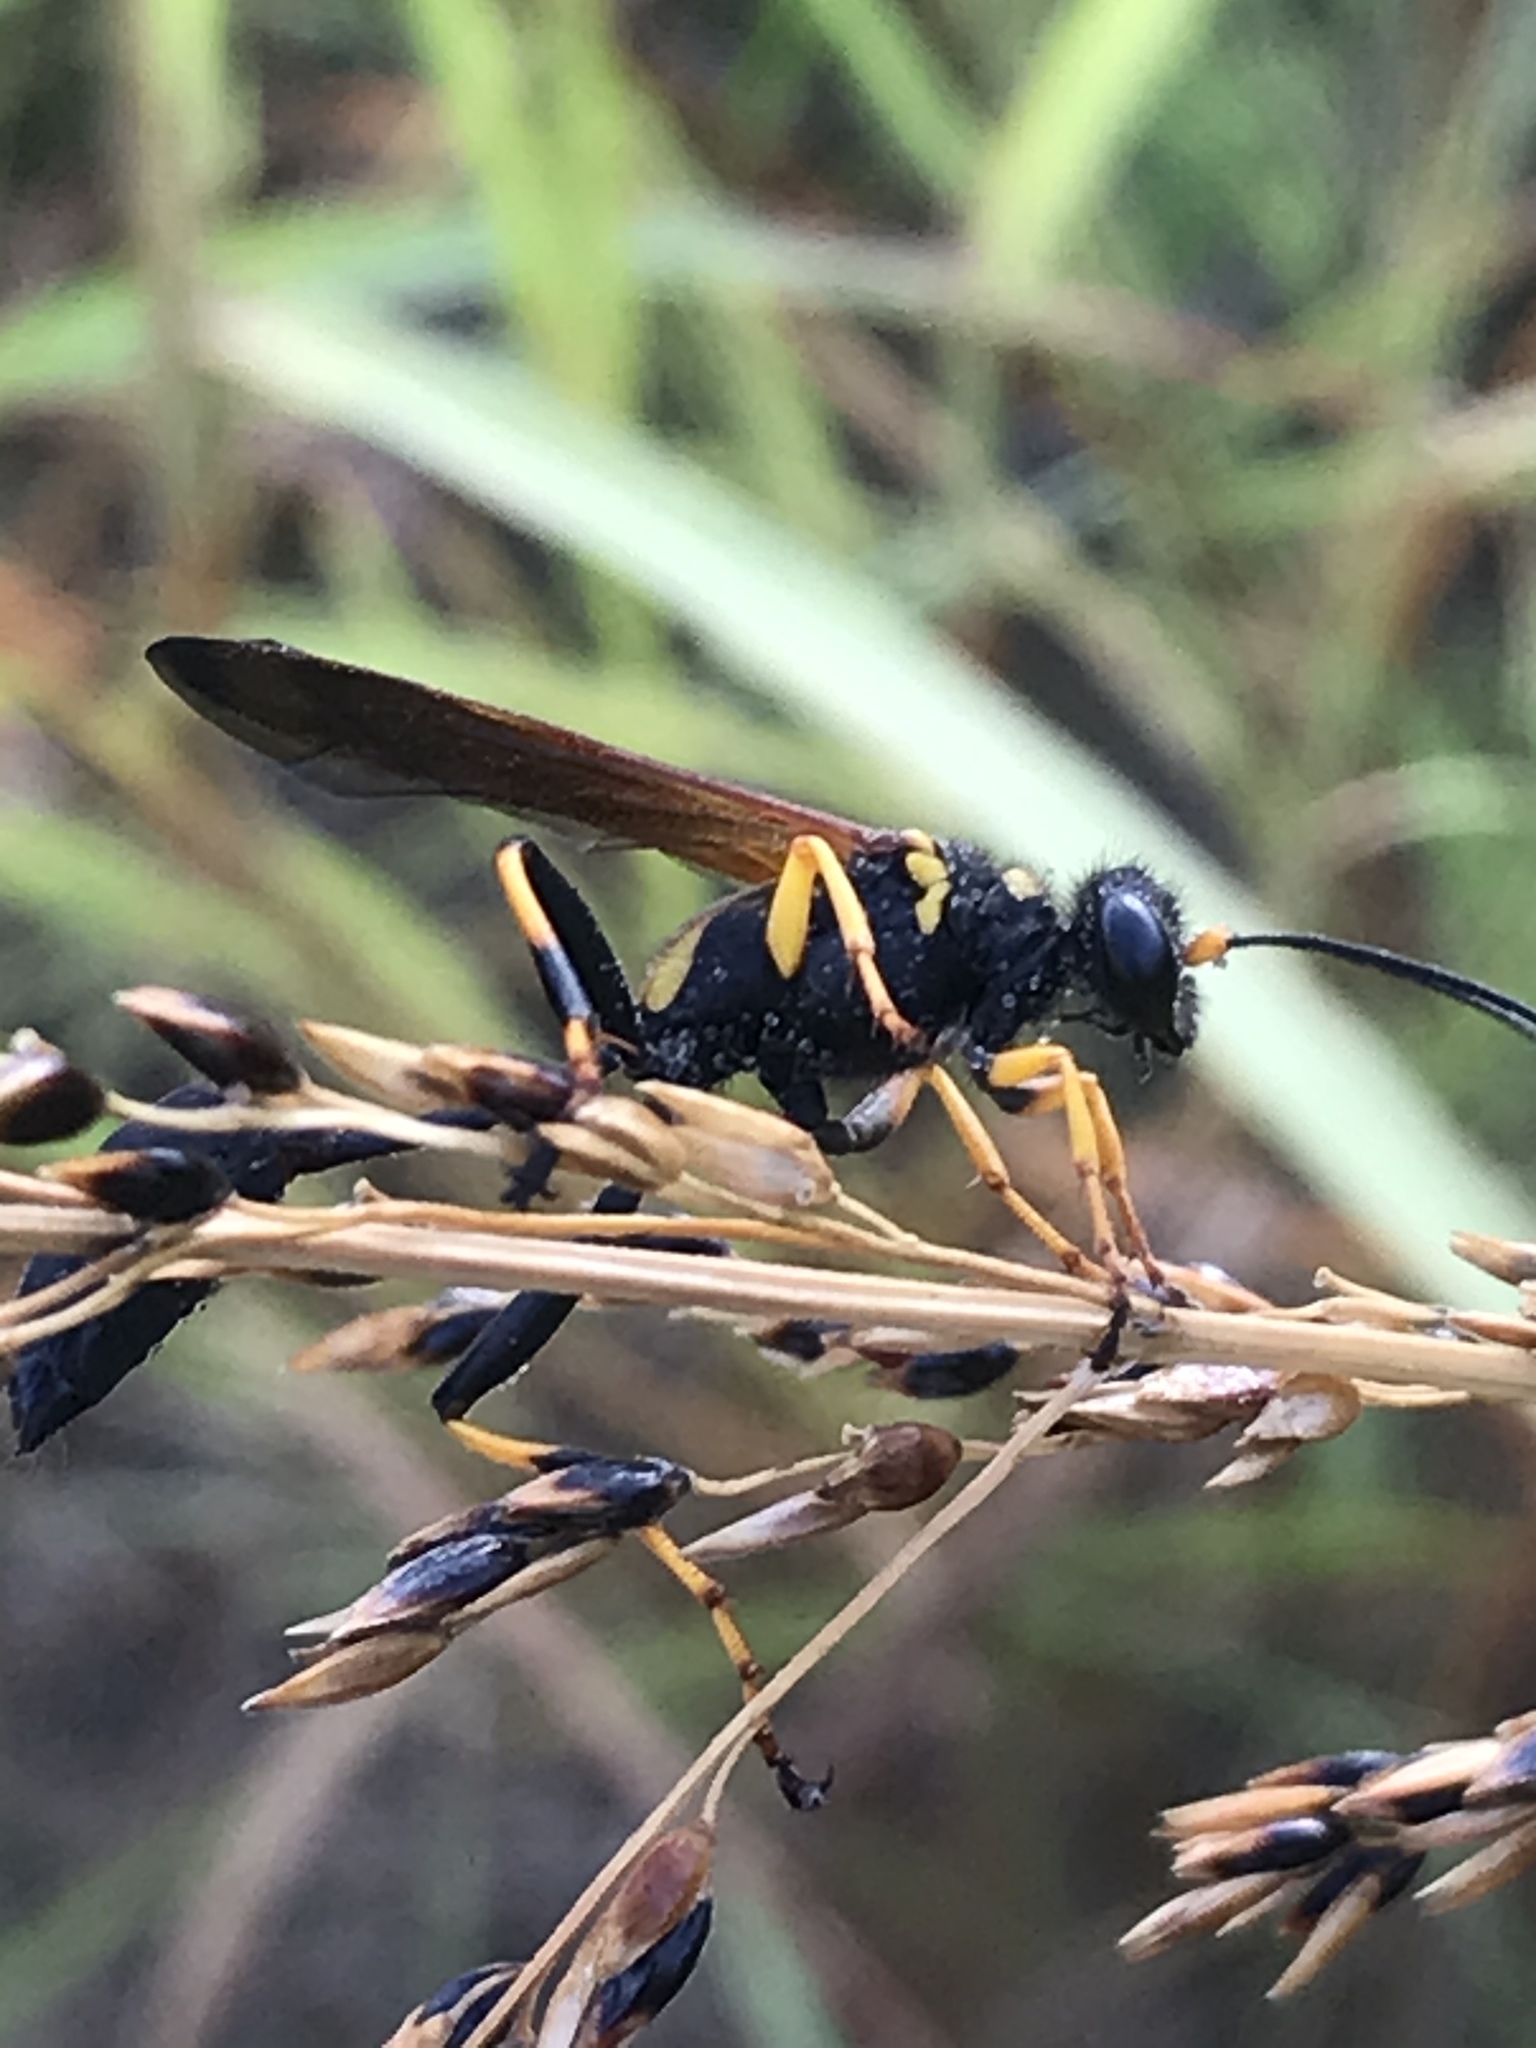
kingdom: Animalia
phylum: Arthropoda
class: Insecta
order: Hymenoptera
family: Sphecidae
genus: Sceliphron
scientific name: Sceliphron caementarium
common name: Mud dauber
